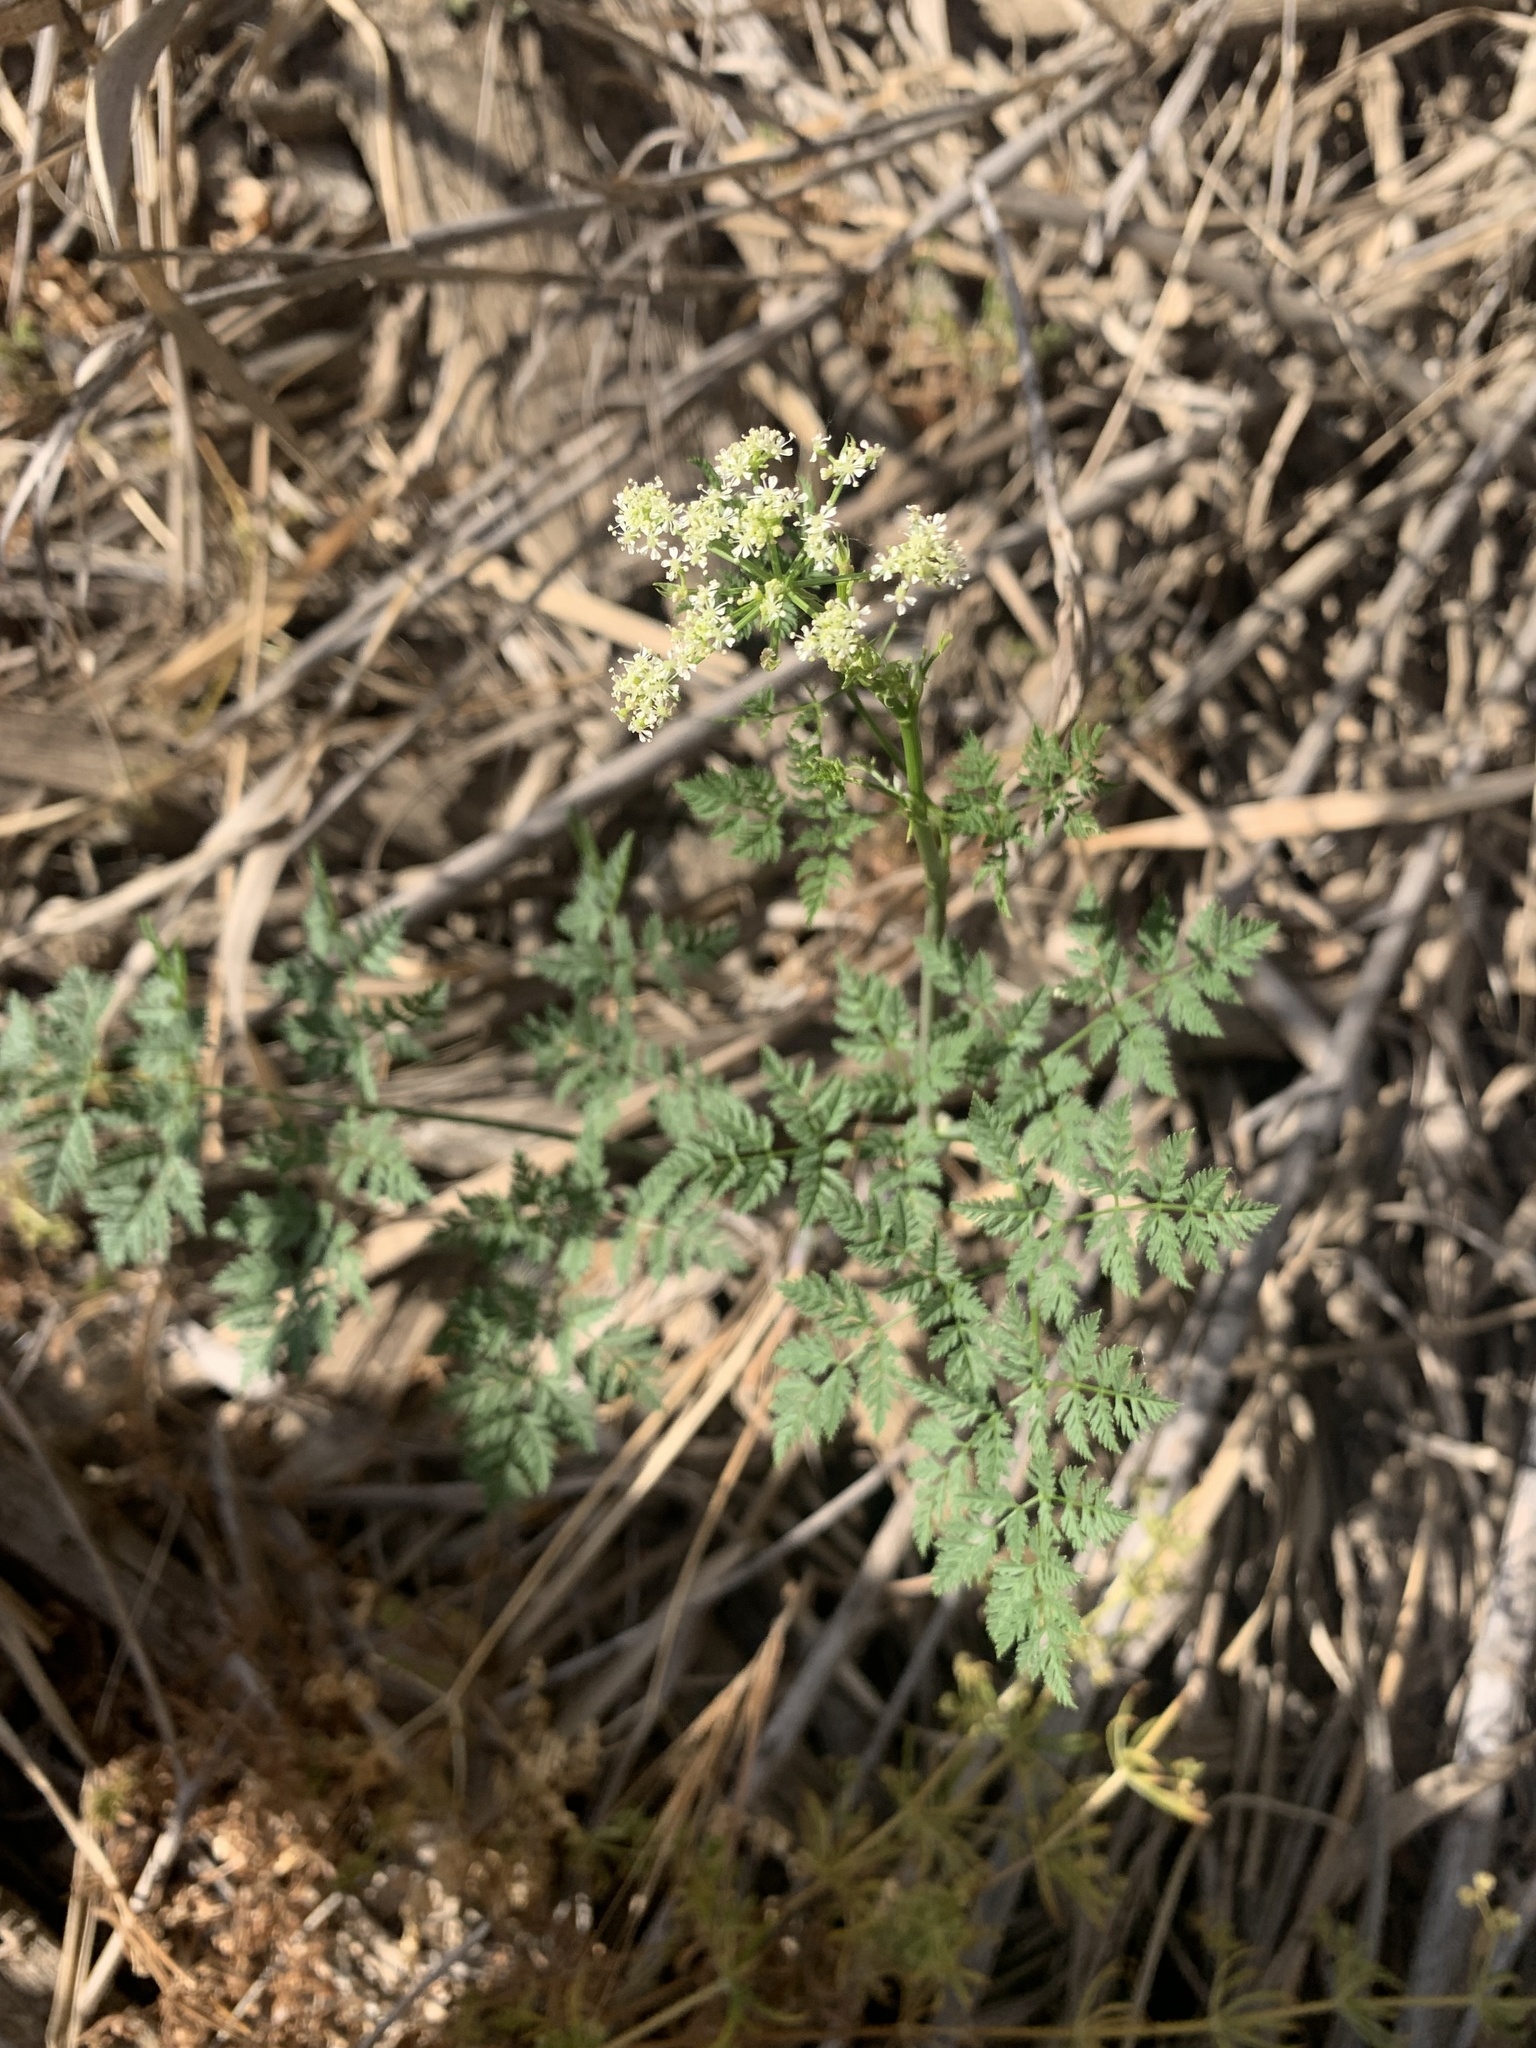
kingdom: Plantae
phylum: Tracheophyta
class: Magnoliopsida
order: Apiales
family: Apiaceae
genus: Conium
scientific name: Conium maculatum
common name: Hemlock
